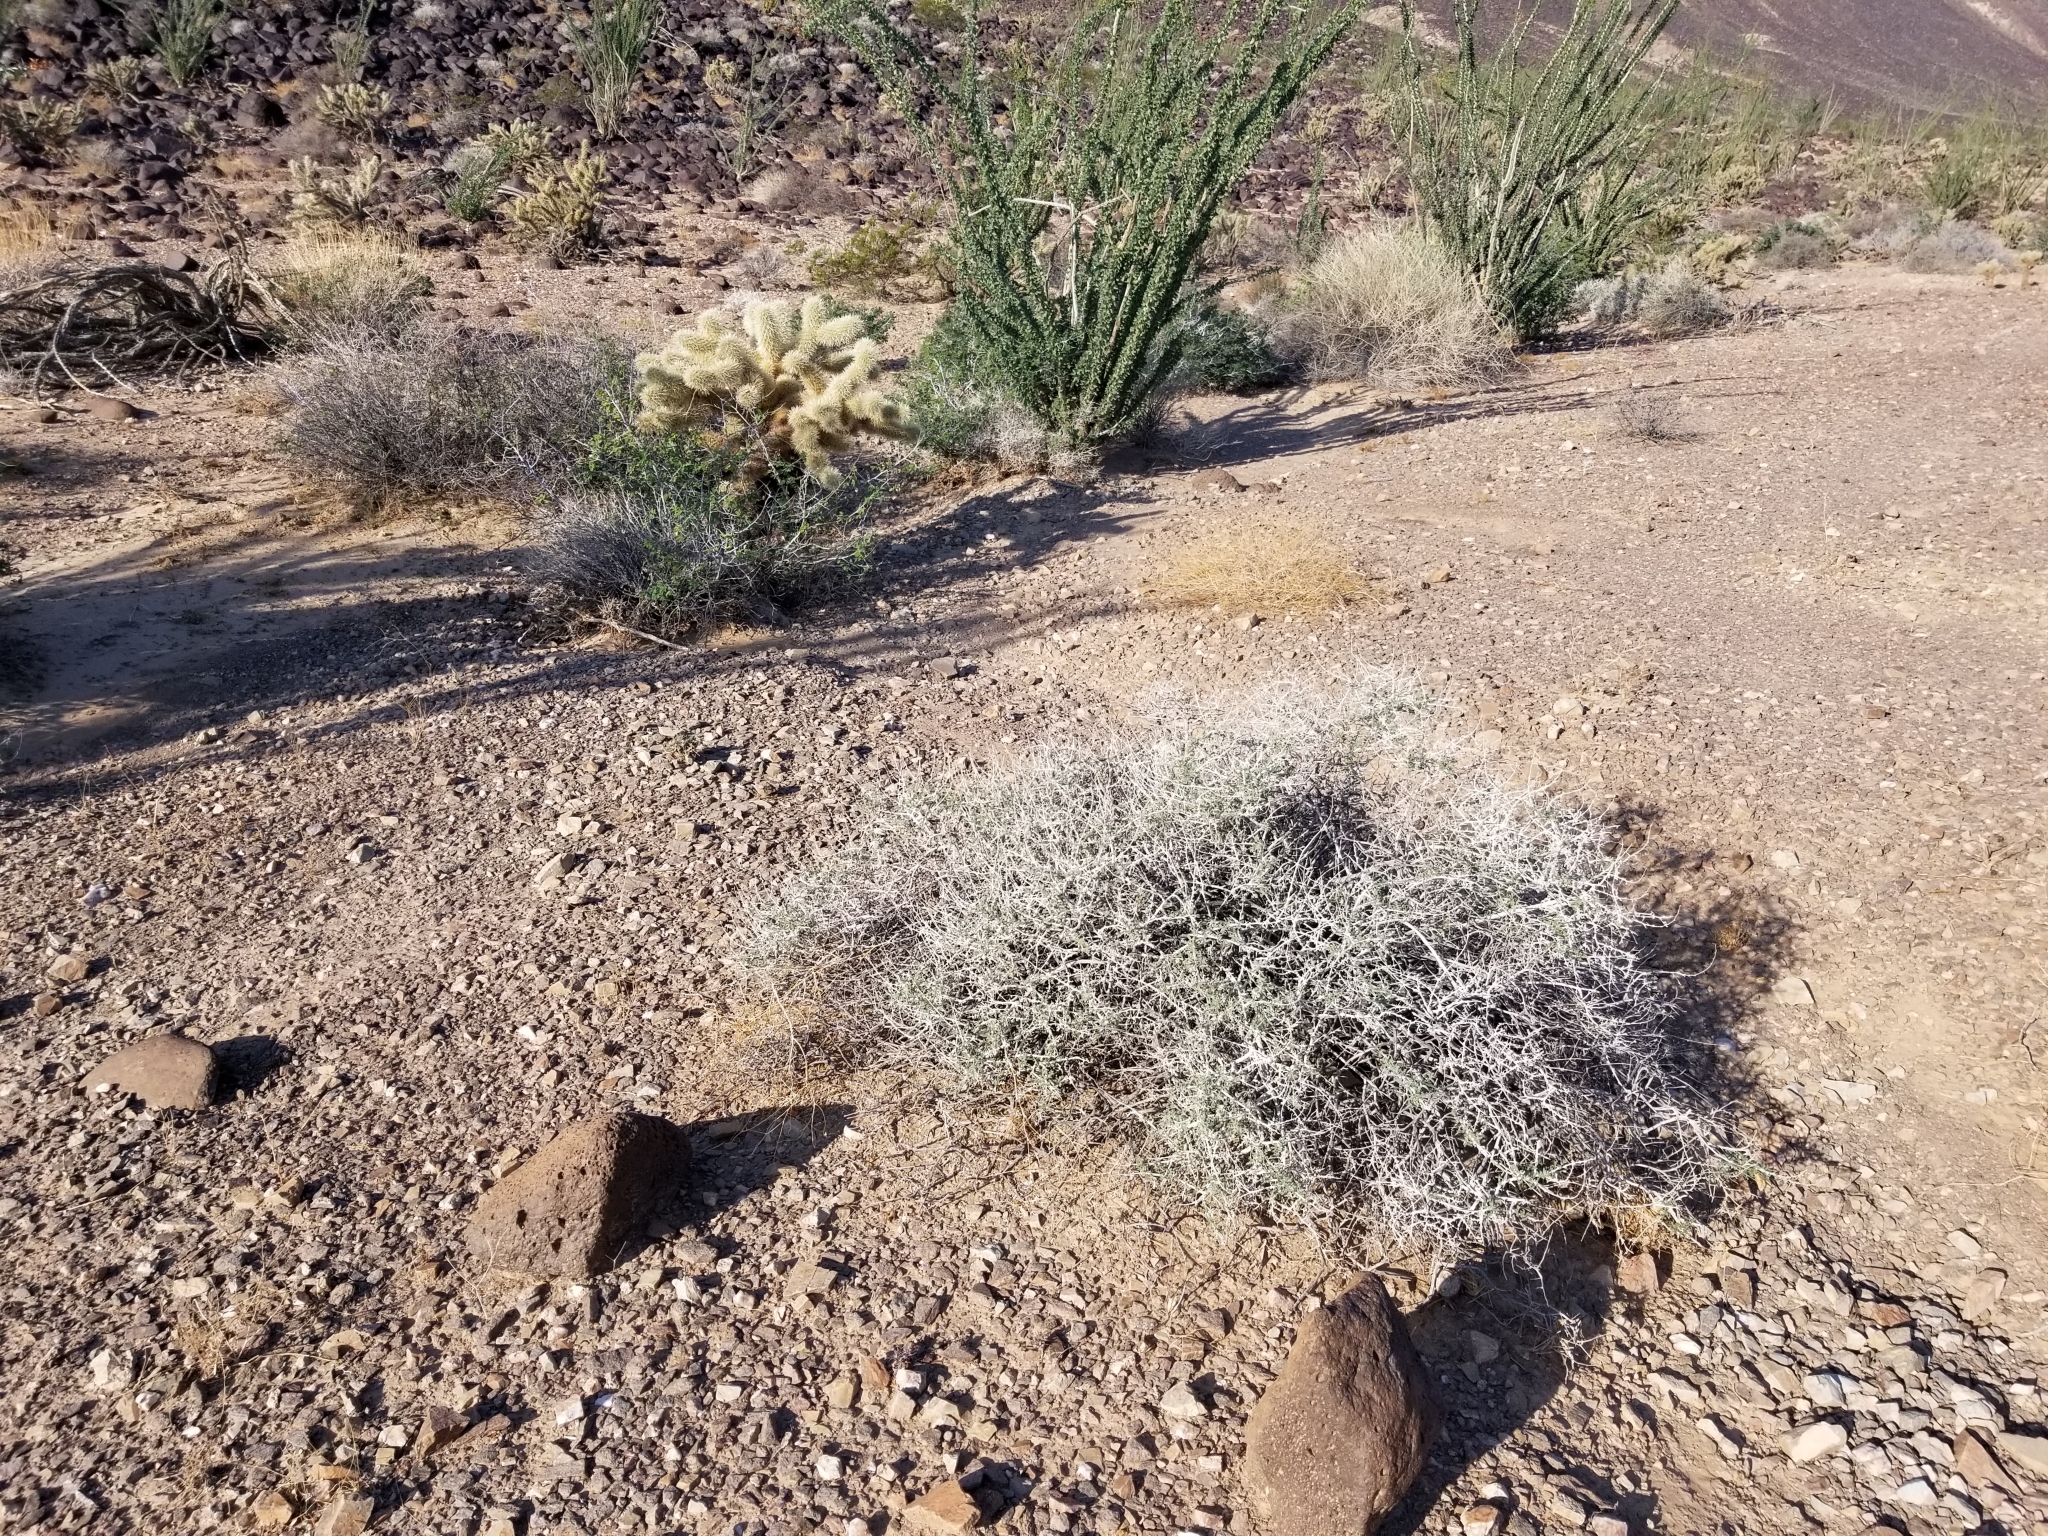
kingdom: Plantae
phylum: Tracheophyta
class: Magnoliopsida
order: Asterales
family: Asteraceae
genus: Ambrosia
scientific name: Ambrosia dumosa
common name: Bur-sage
